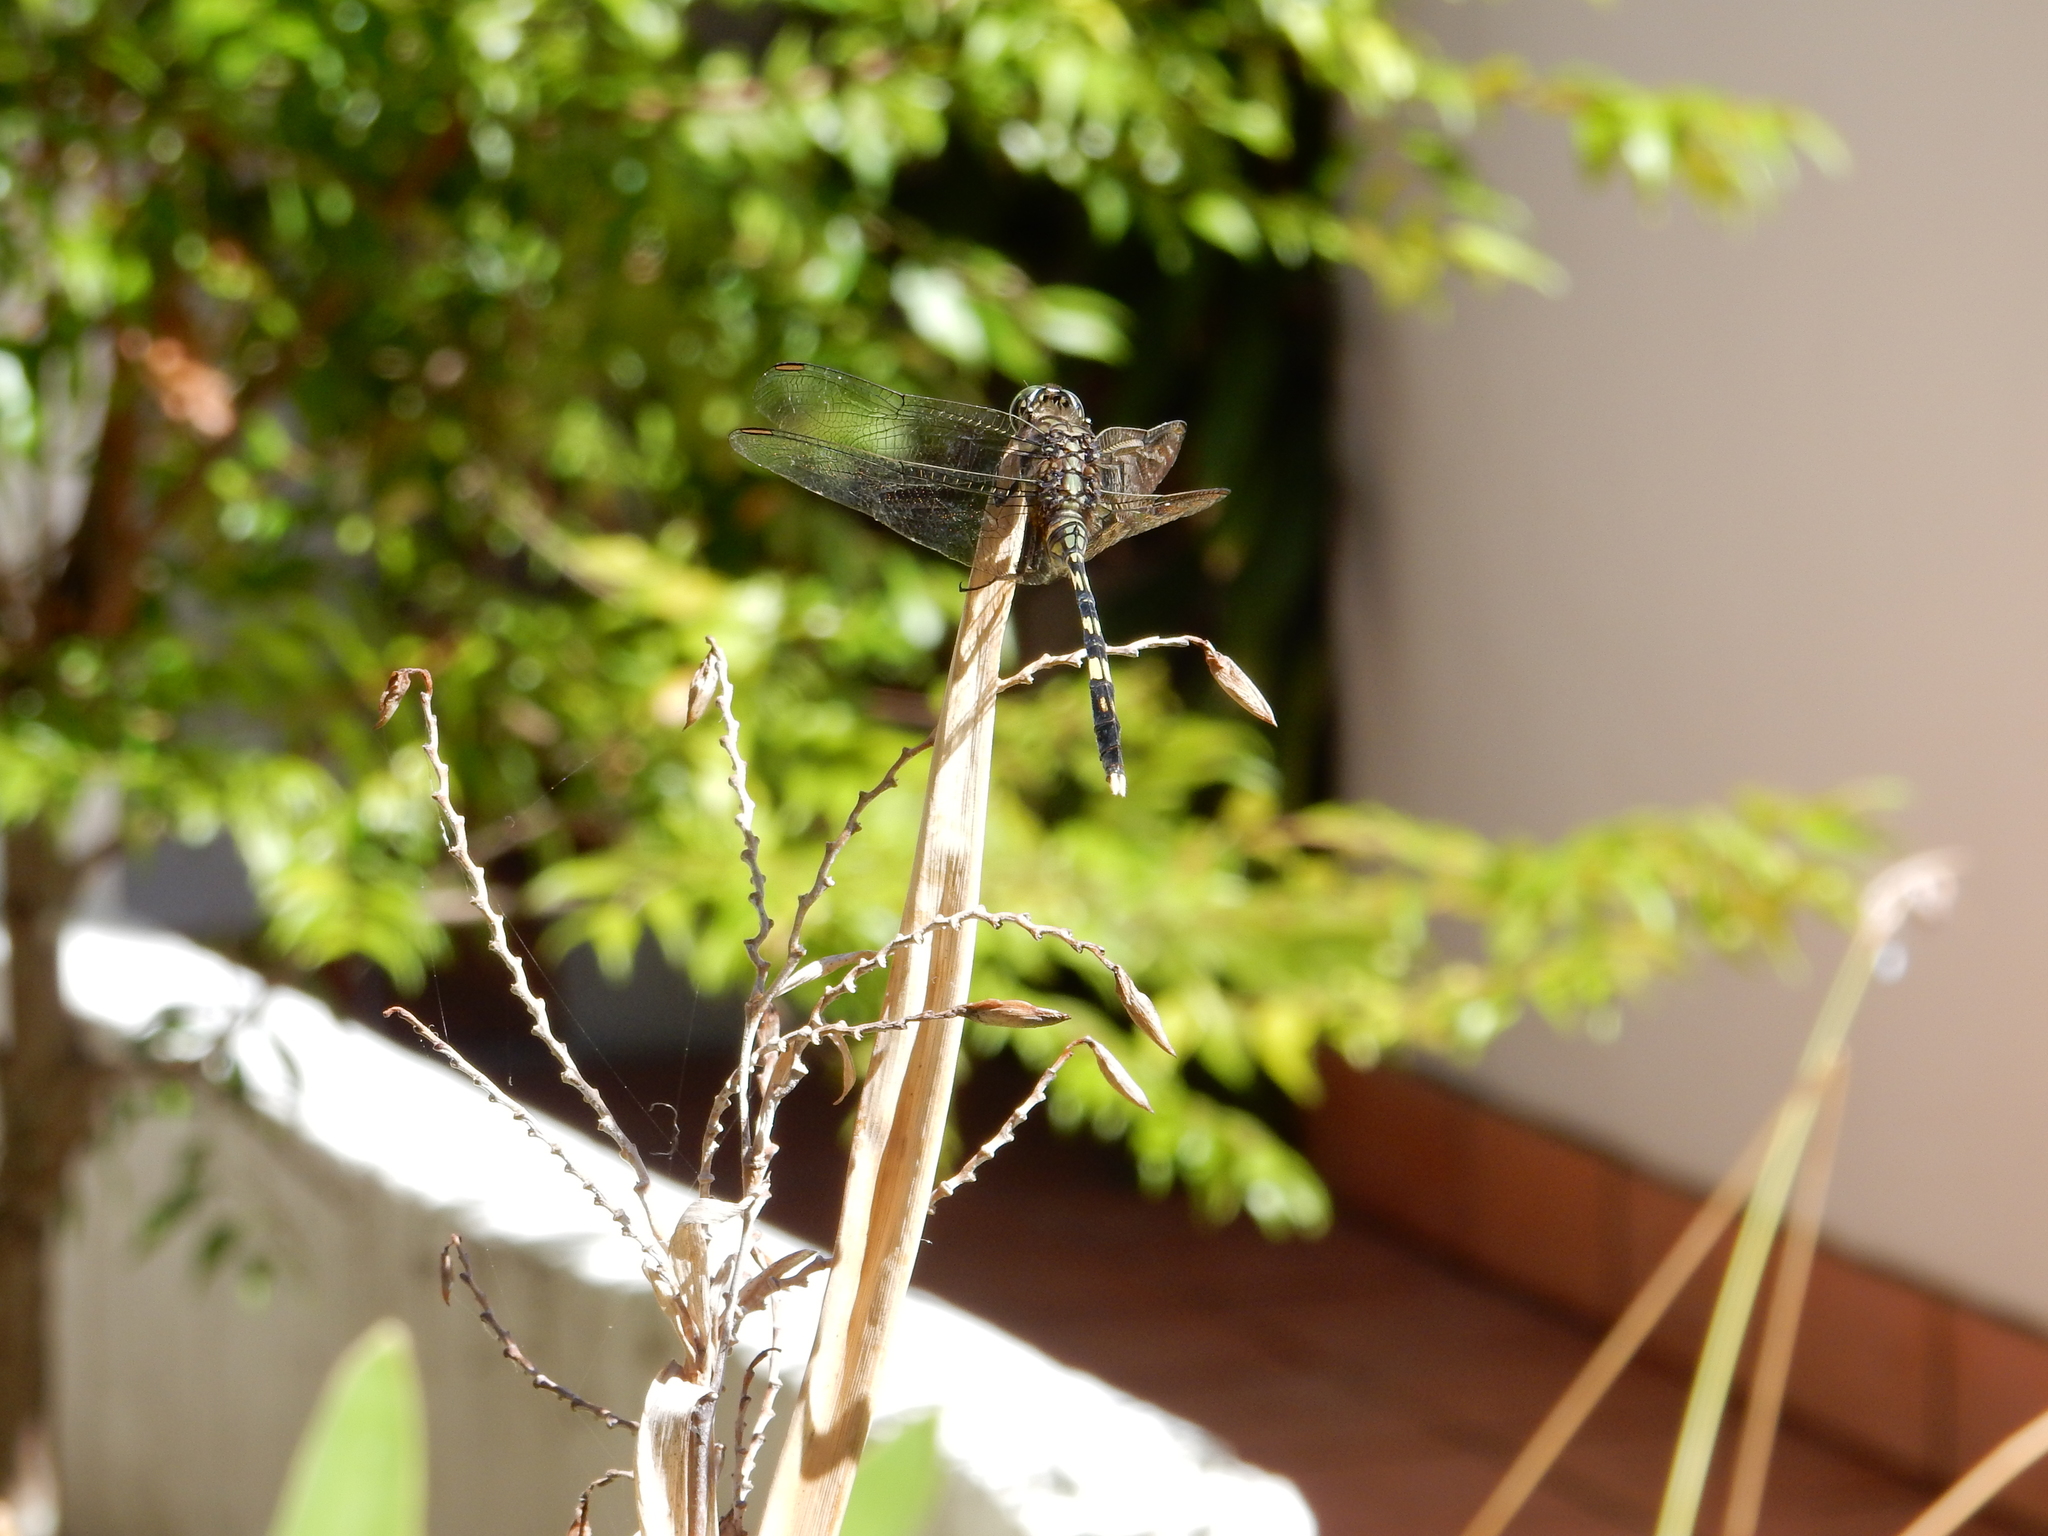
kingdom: Animalia
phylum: Arthropoda
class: Insecta
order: Odonata
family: Libellulidae
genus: Orthetrum
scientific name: Orthetrum serapia
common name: Green skimmer
